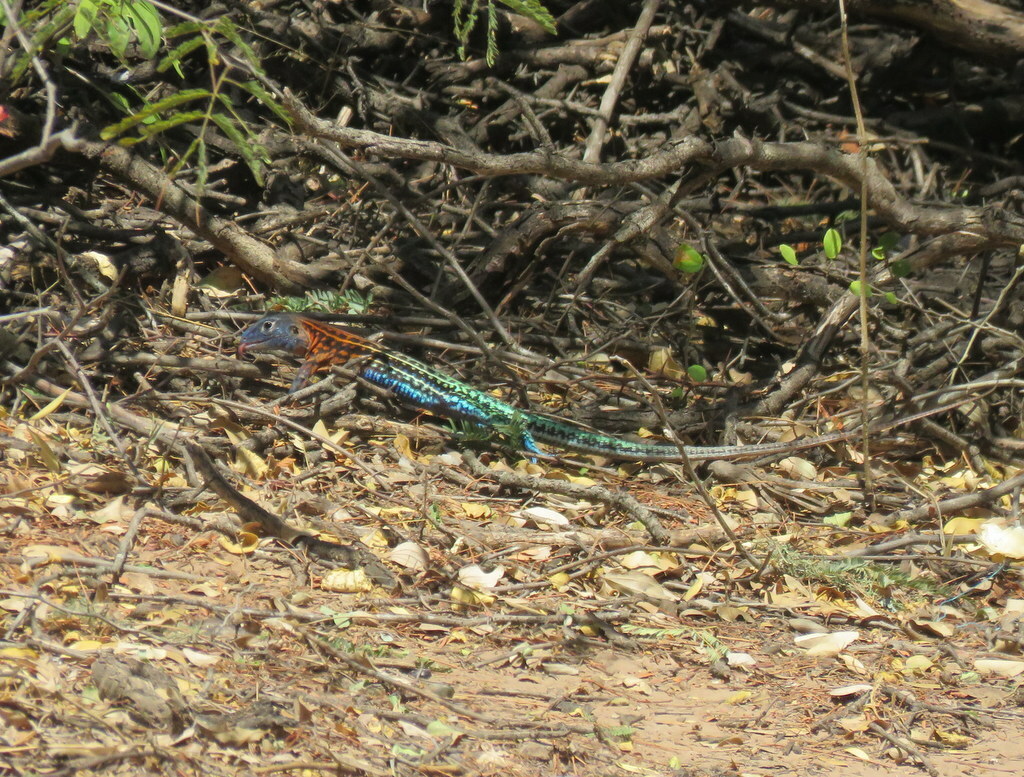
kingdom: Animalia
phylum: Chordata
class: Squamata
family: Teiidae
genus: Teius
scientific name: Teius teyou
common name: Four-toed tegu
